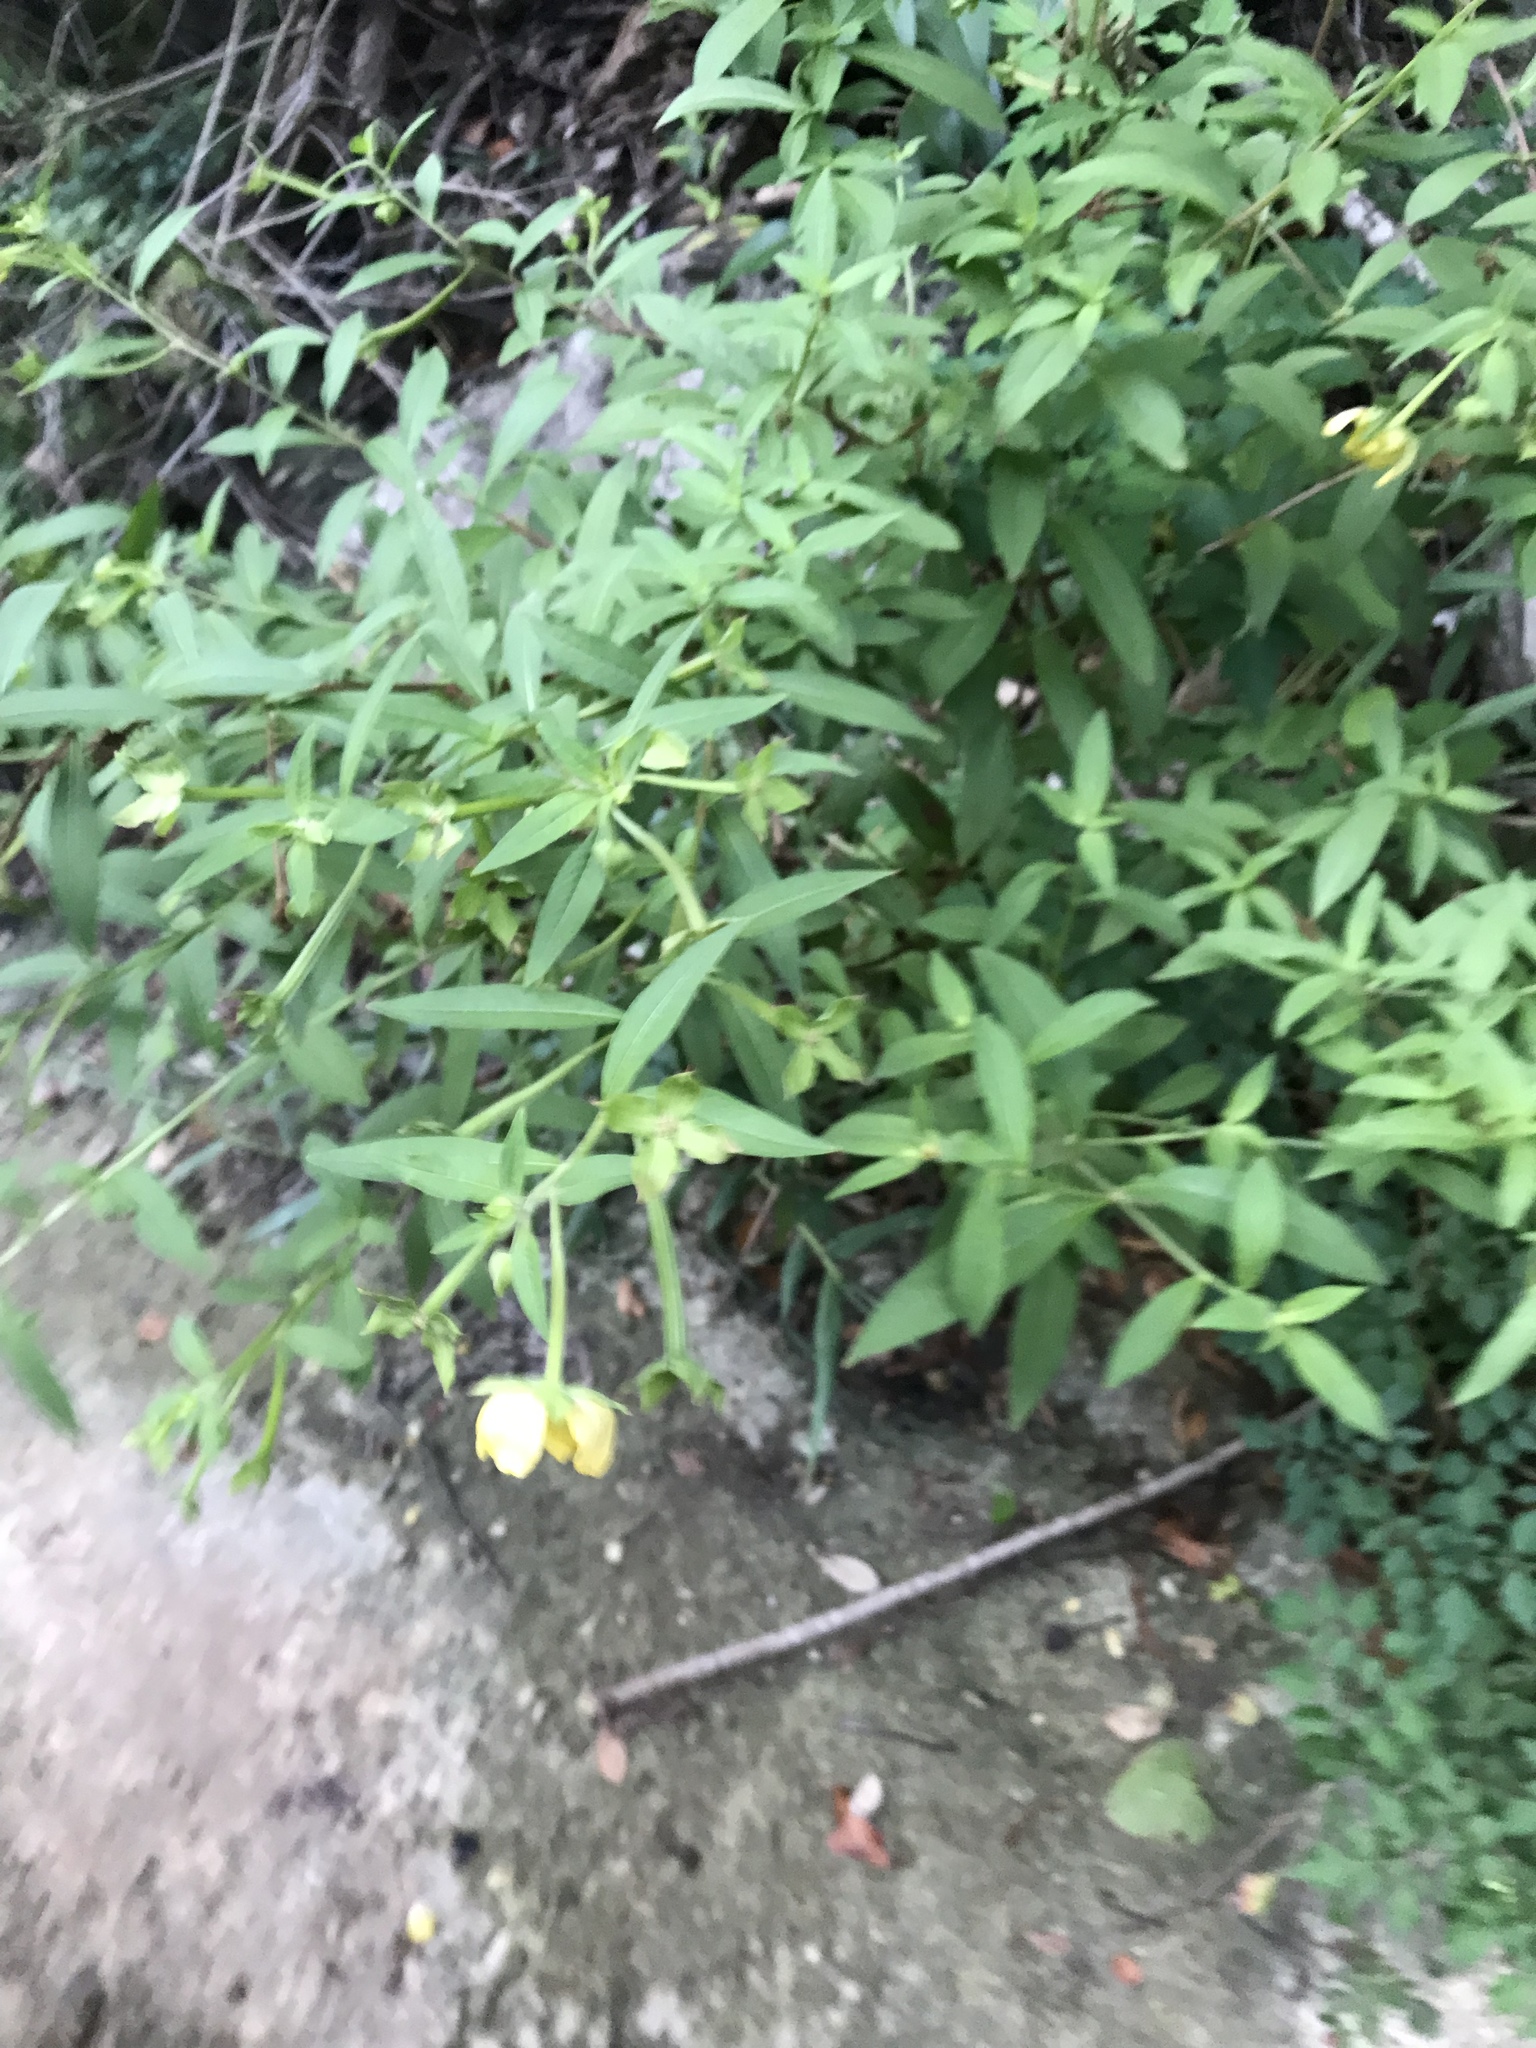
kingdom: Plantae
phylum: Tracheophyta
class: Magnoliopsida
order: Myrtales
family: Onagraceae
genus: Ludwigia
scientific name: Ludwigia octovalvis
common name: Water-primrose
